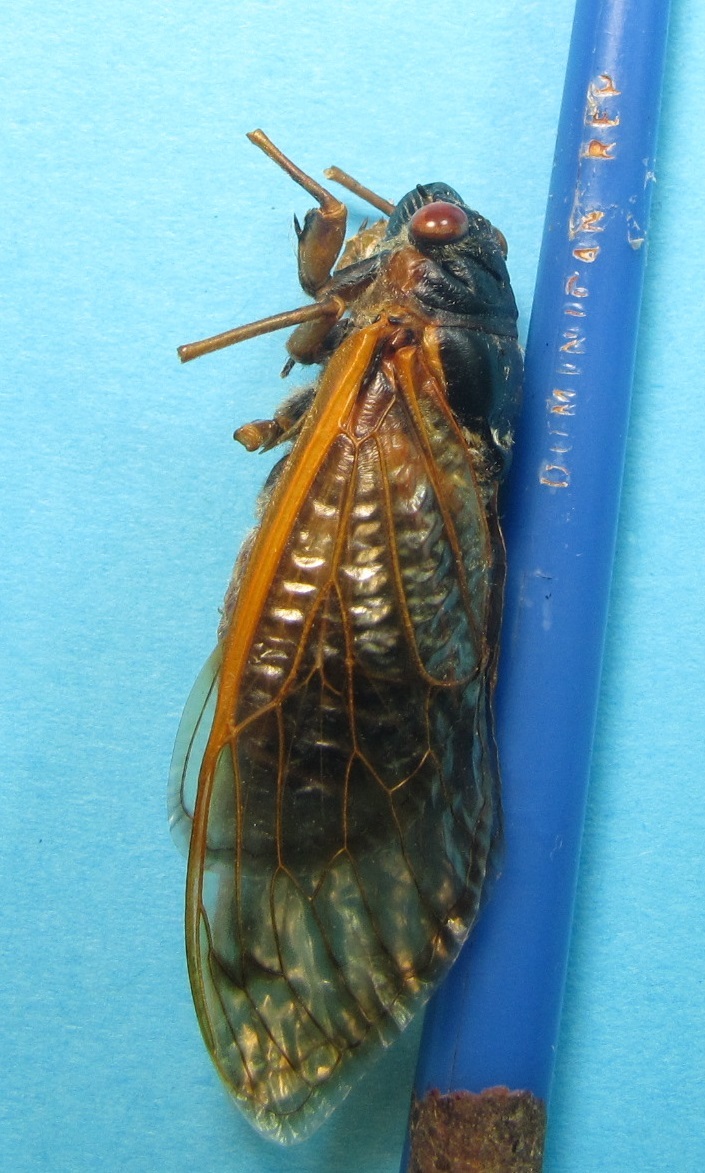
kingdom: Animalia
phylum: Arthropoda
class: Insecta
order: Hemiptera
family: Cicadidae
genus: Magicicada
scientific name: Magicicada tredecim
